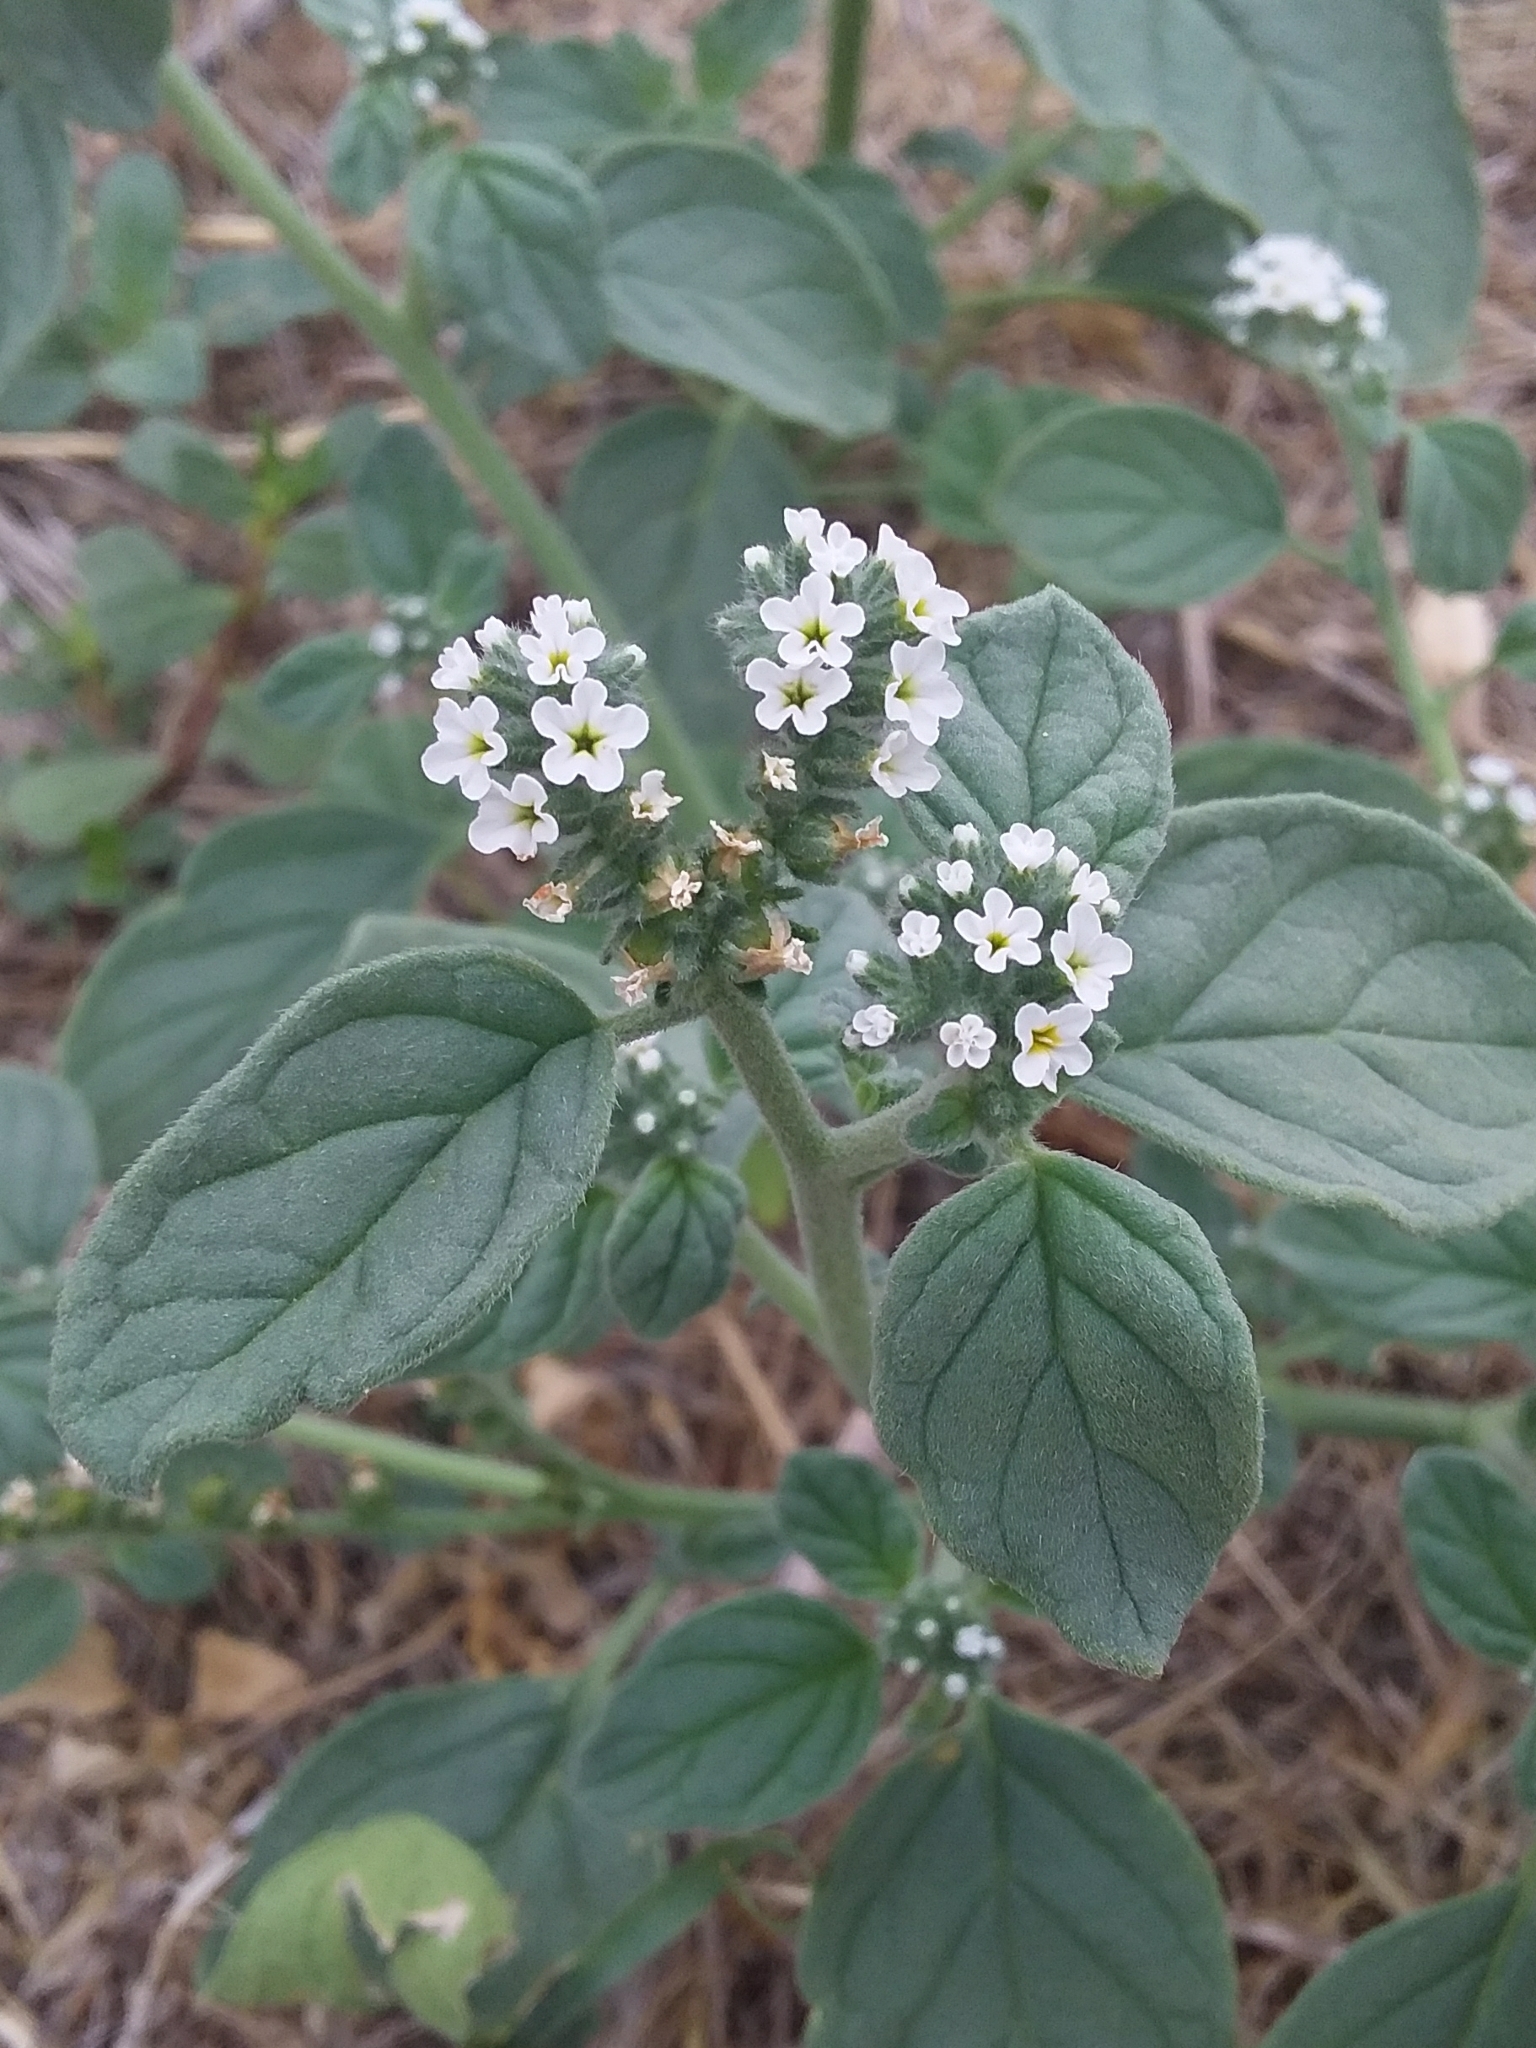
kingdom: Plantae
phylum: Tracheophyta
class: Magnoliopsida
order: Boraginales
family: Heliotropiaceae
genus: Heliotropium
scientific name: Heliotropium europaeum
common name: European heliotrope
